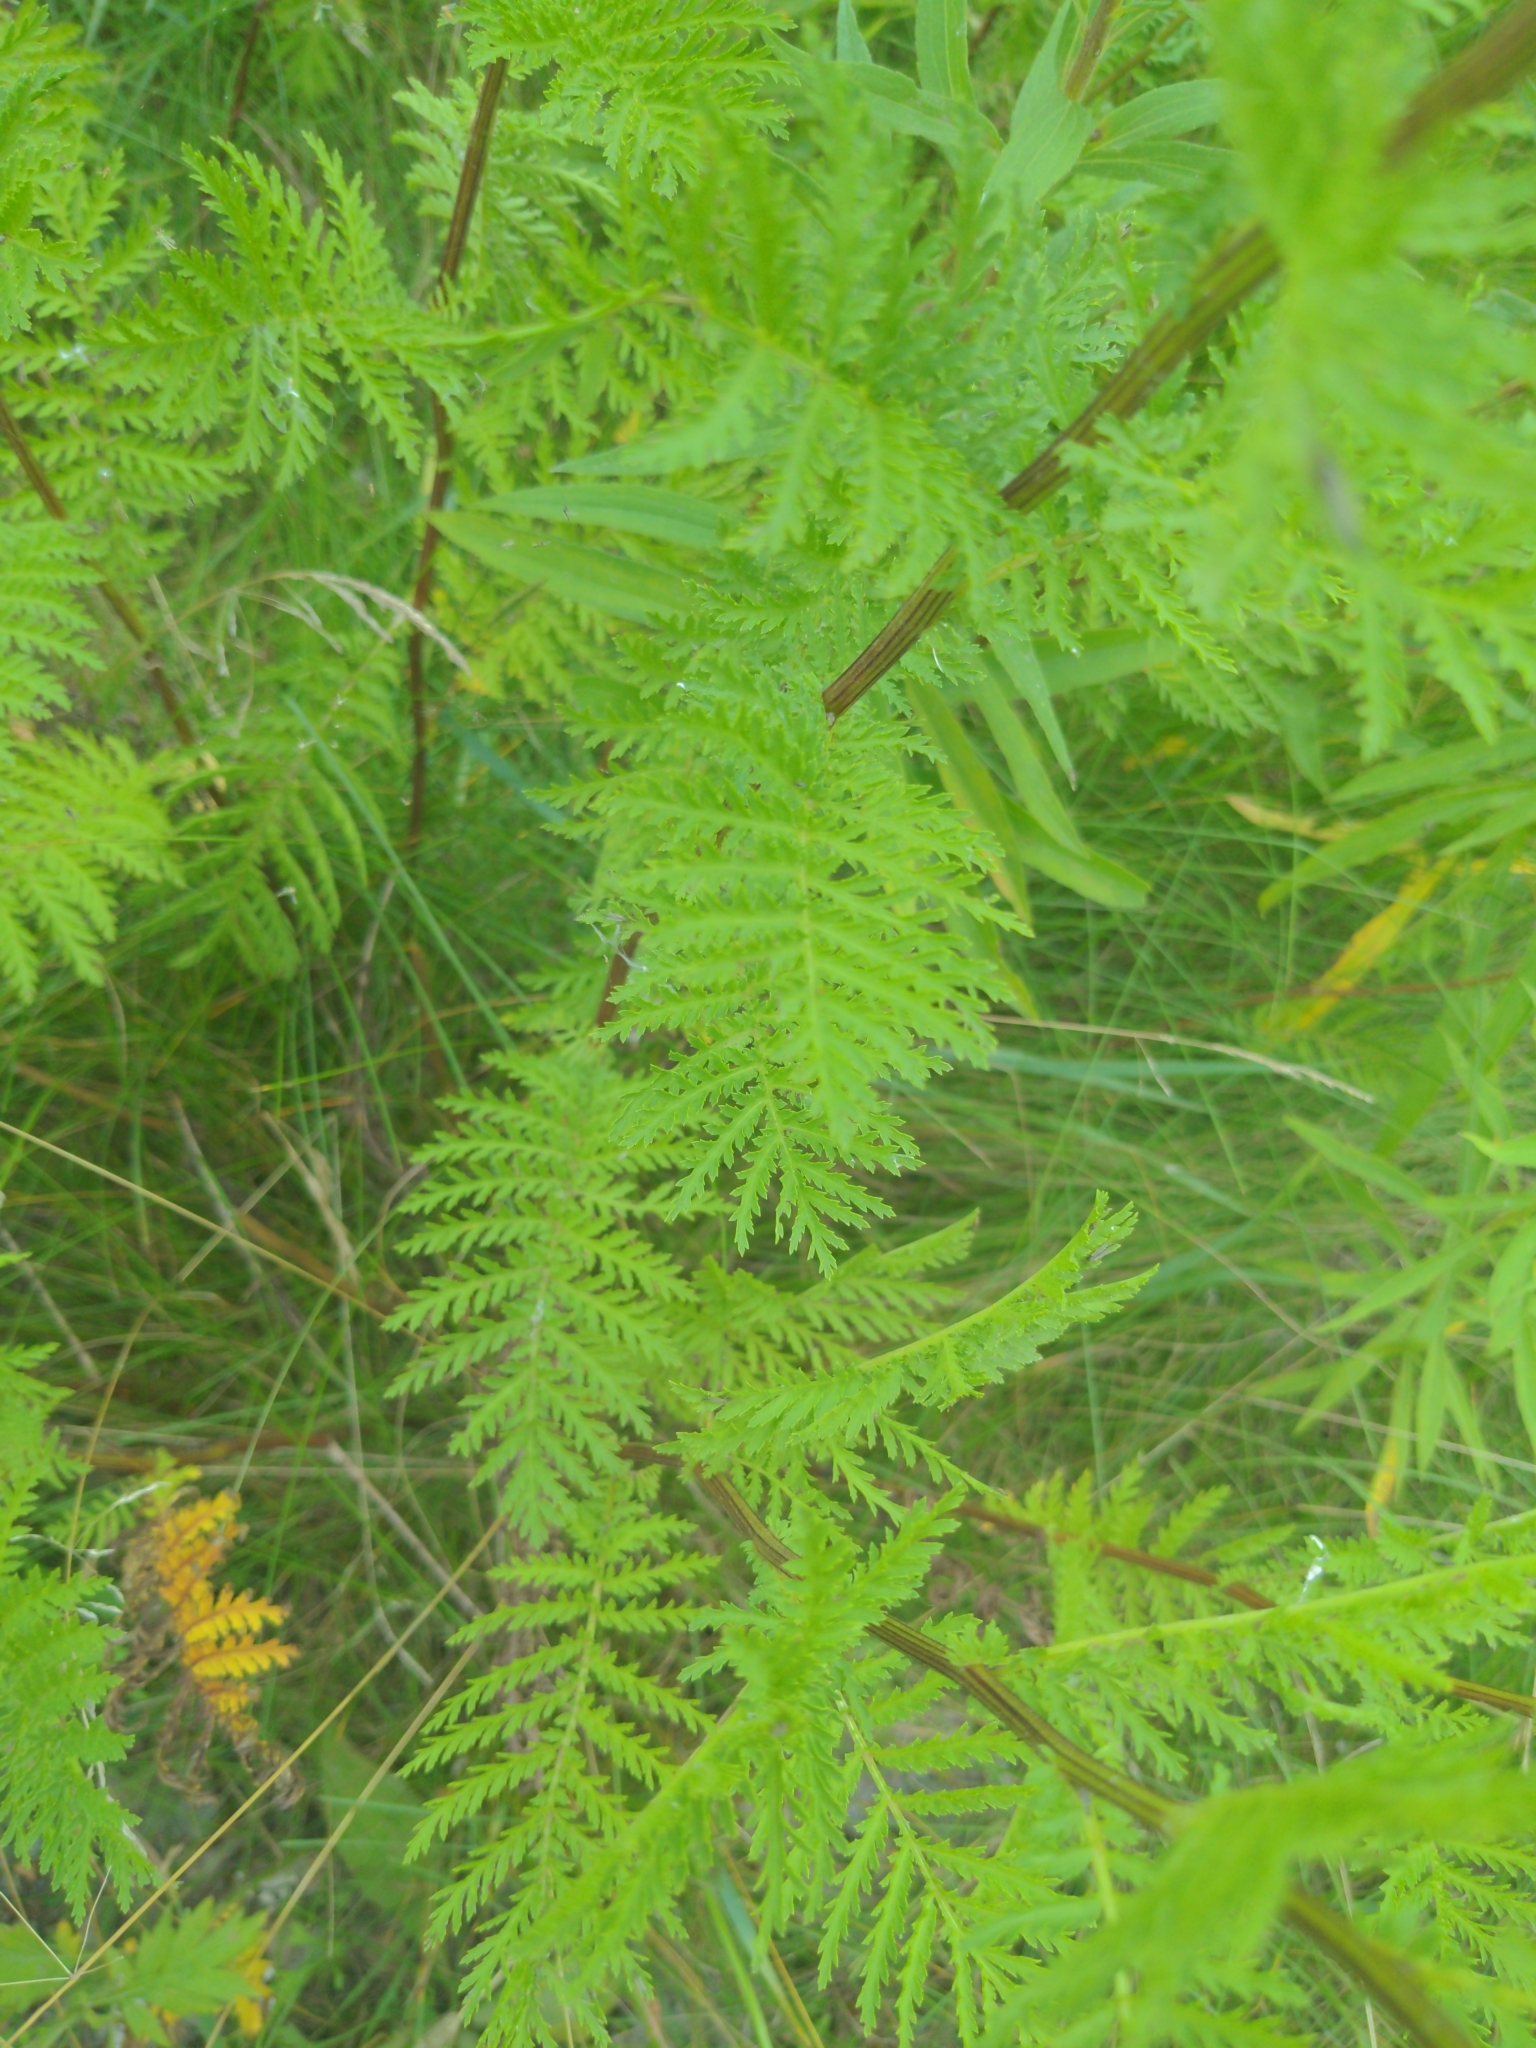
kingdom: Plantae
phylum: Tracheophyta
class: Magnoliopsida
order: Asterales
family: Asteraceae
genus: Tanacetum
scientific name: Tanacetum vulgare
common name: Common tansy
